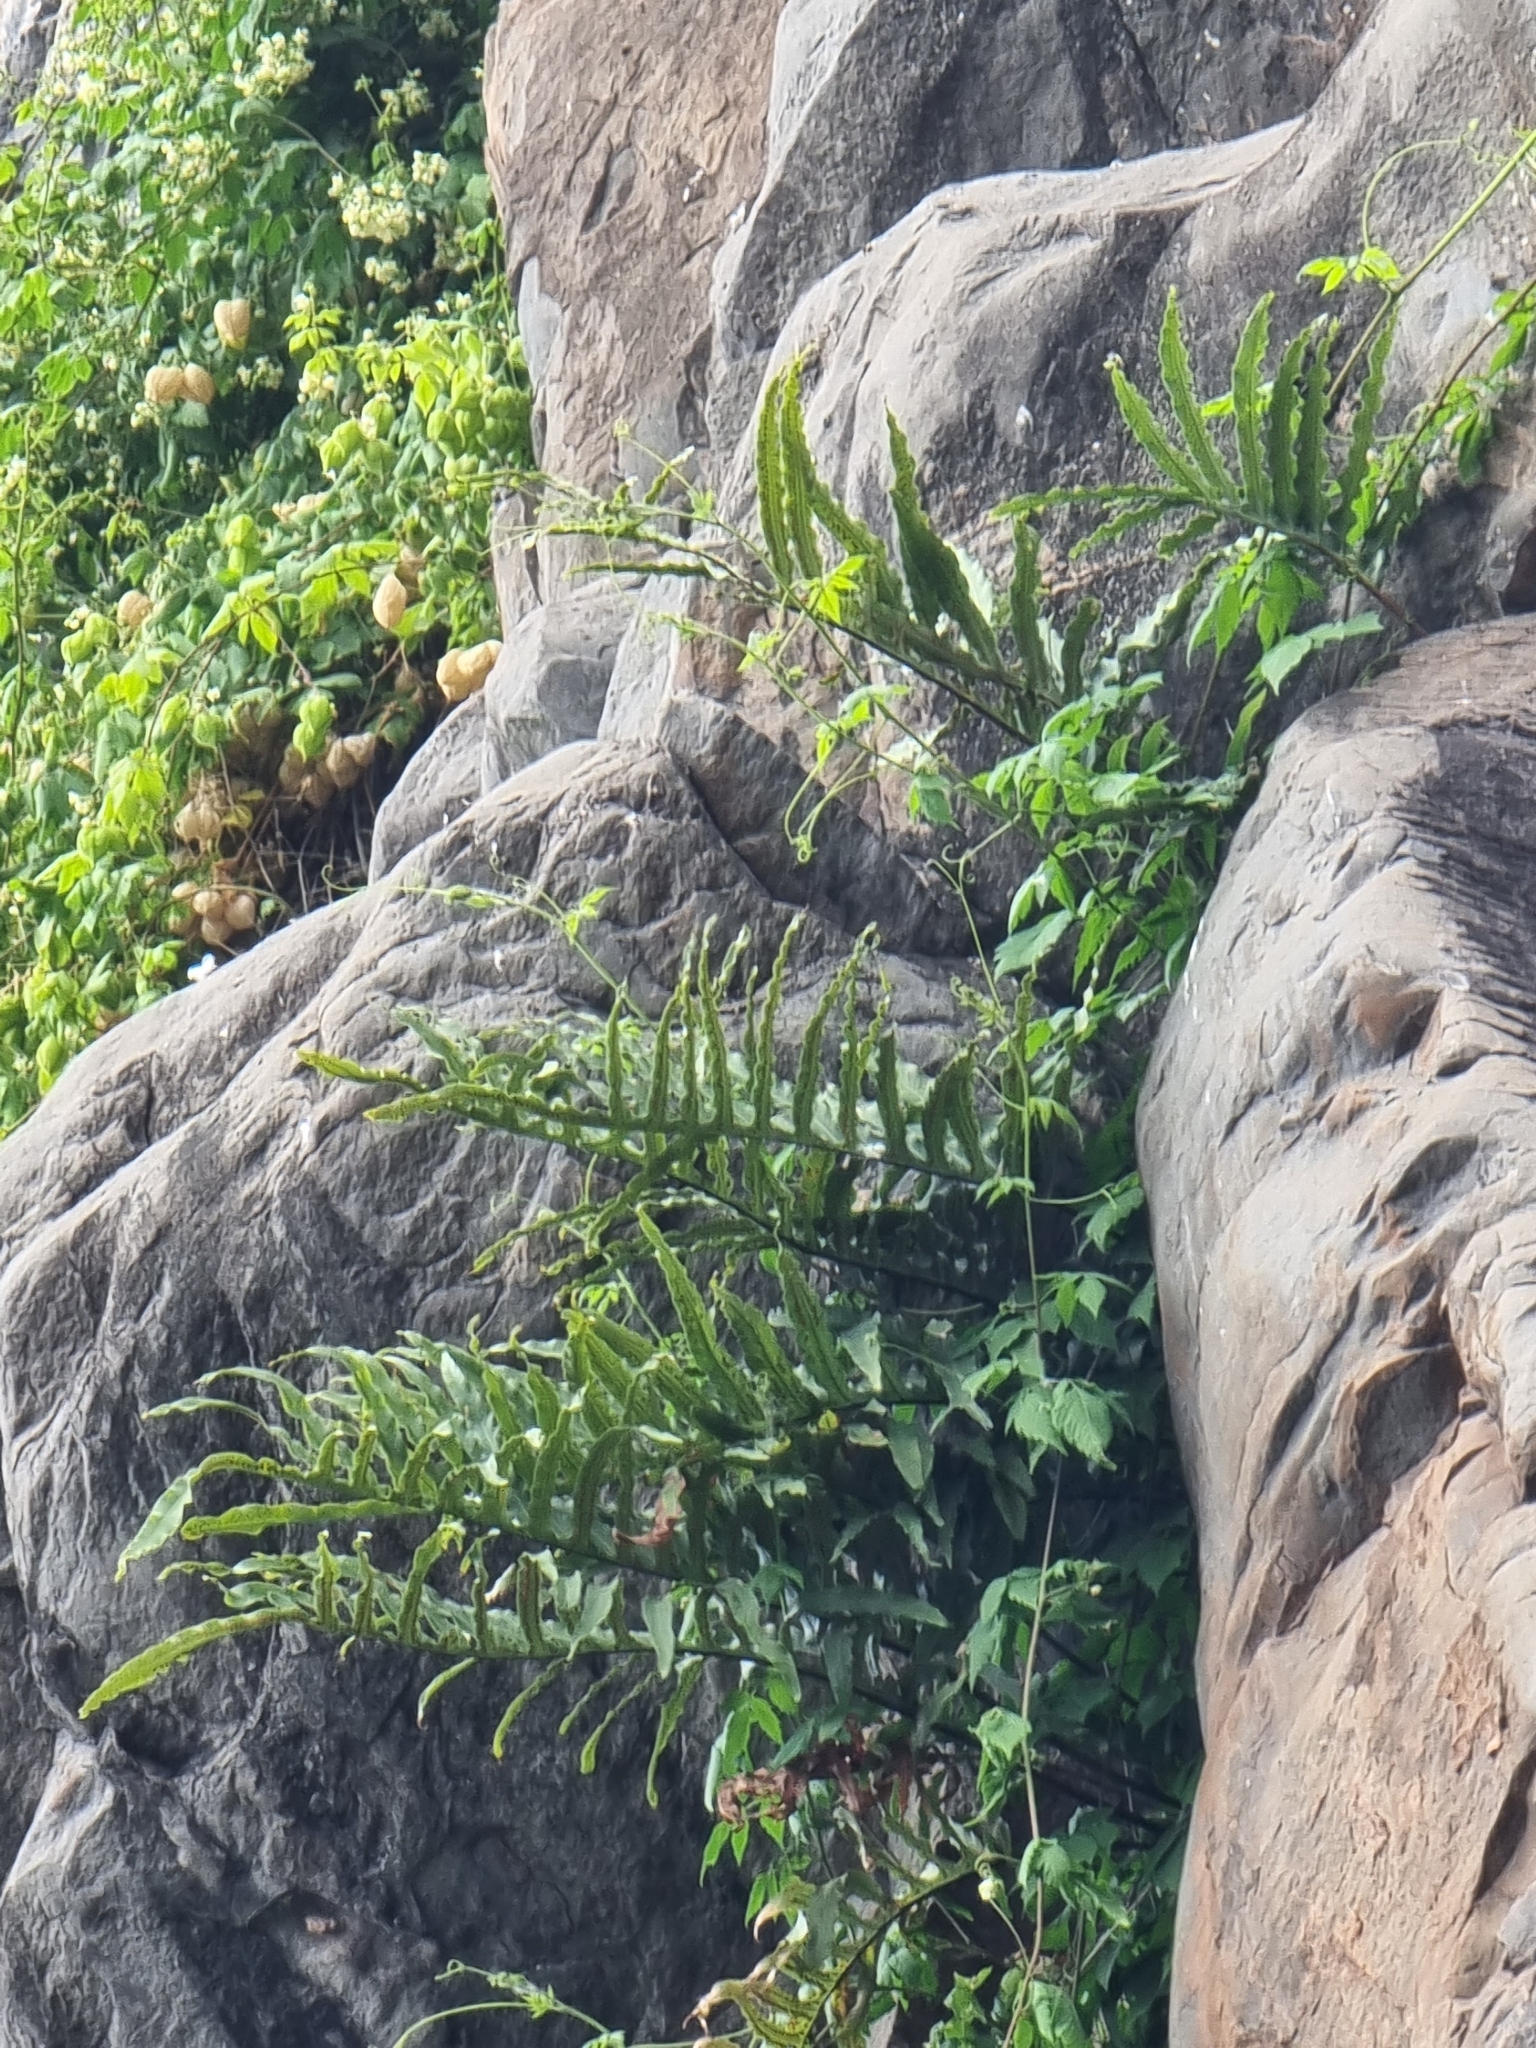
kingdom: Plantae
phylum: Tracheophyta
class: Polypodiopsida
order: Polypodiales
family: Polypodiaceae
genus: Polypodium
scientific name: Polypodium macaronesicum
